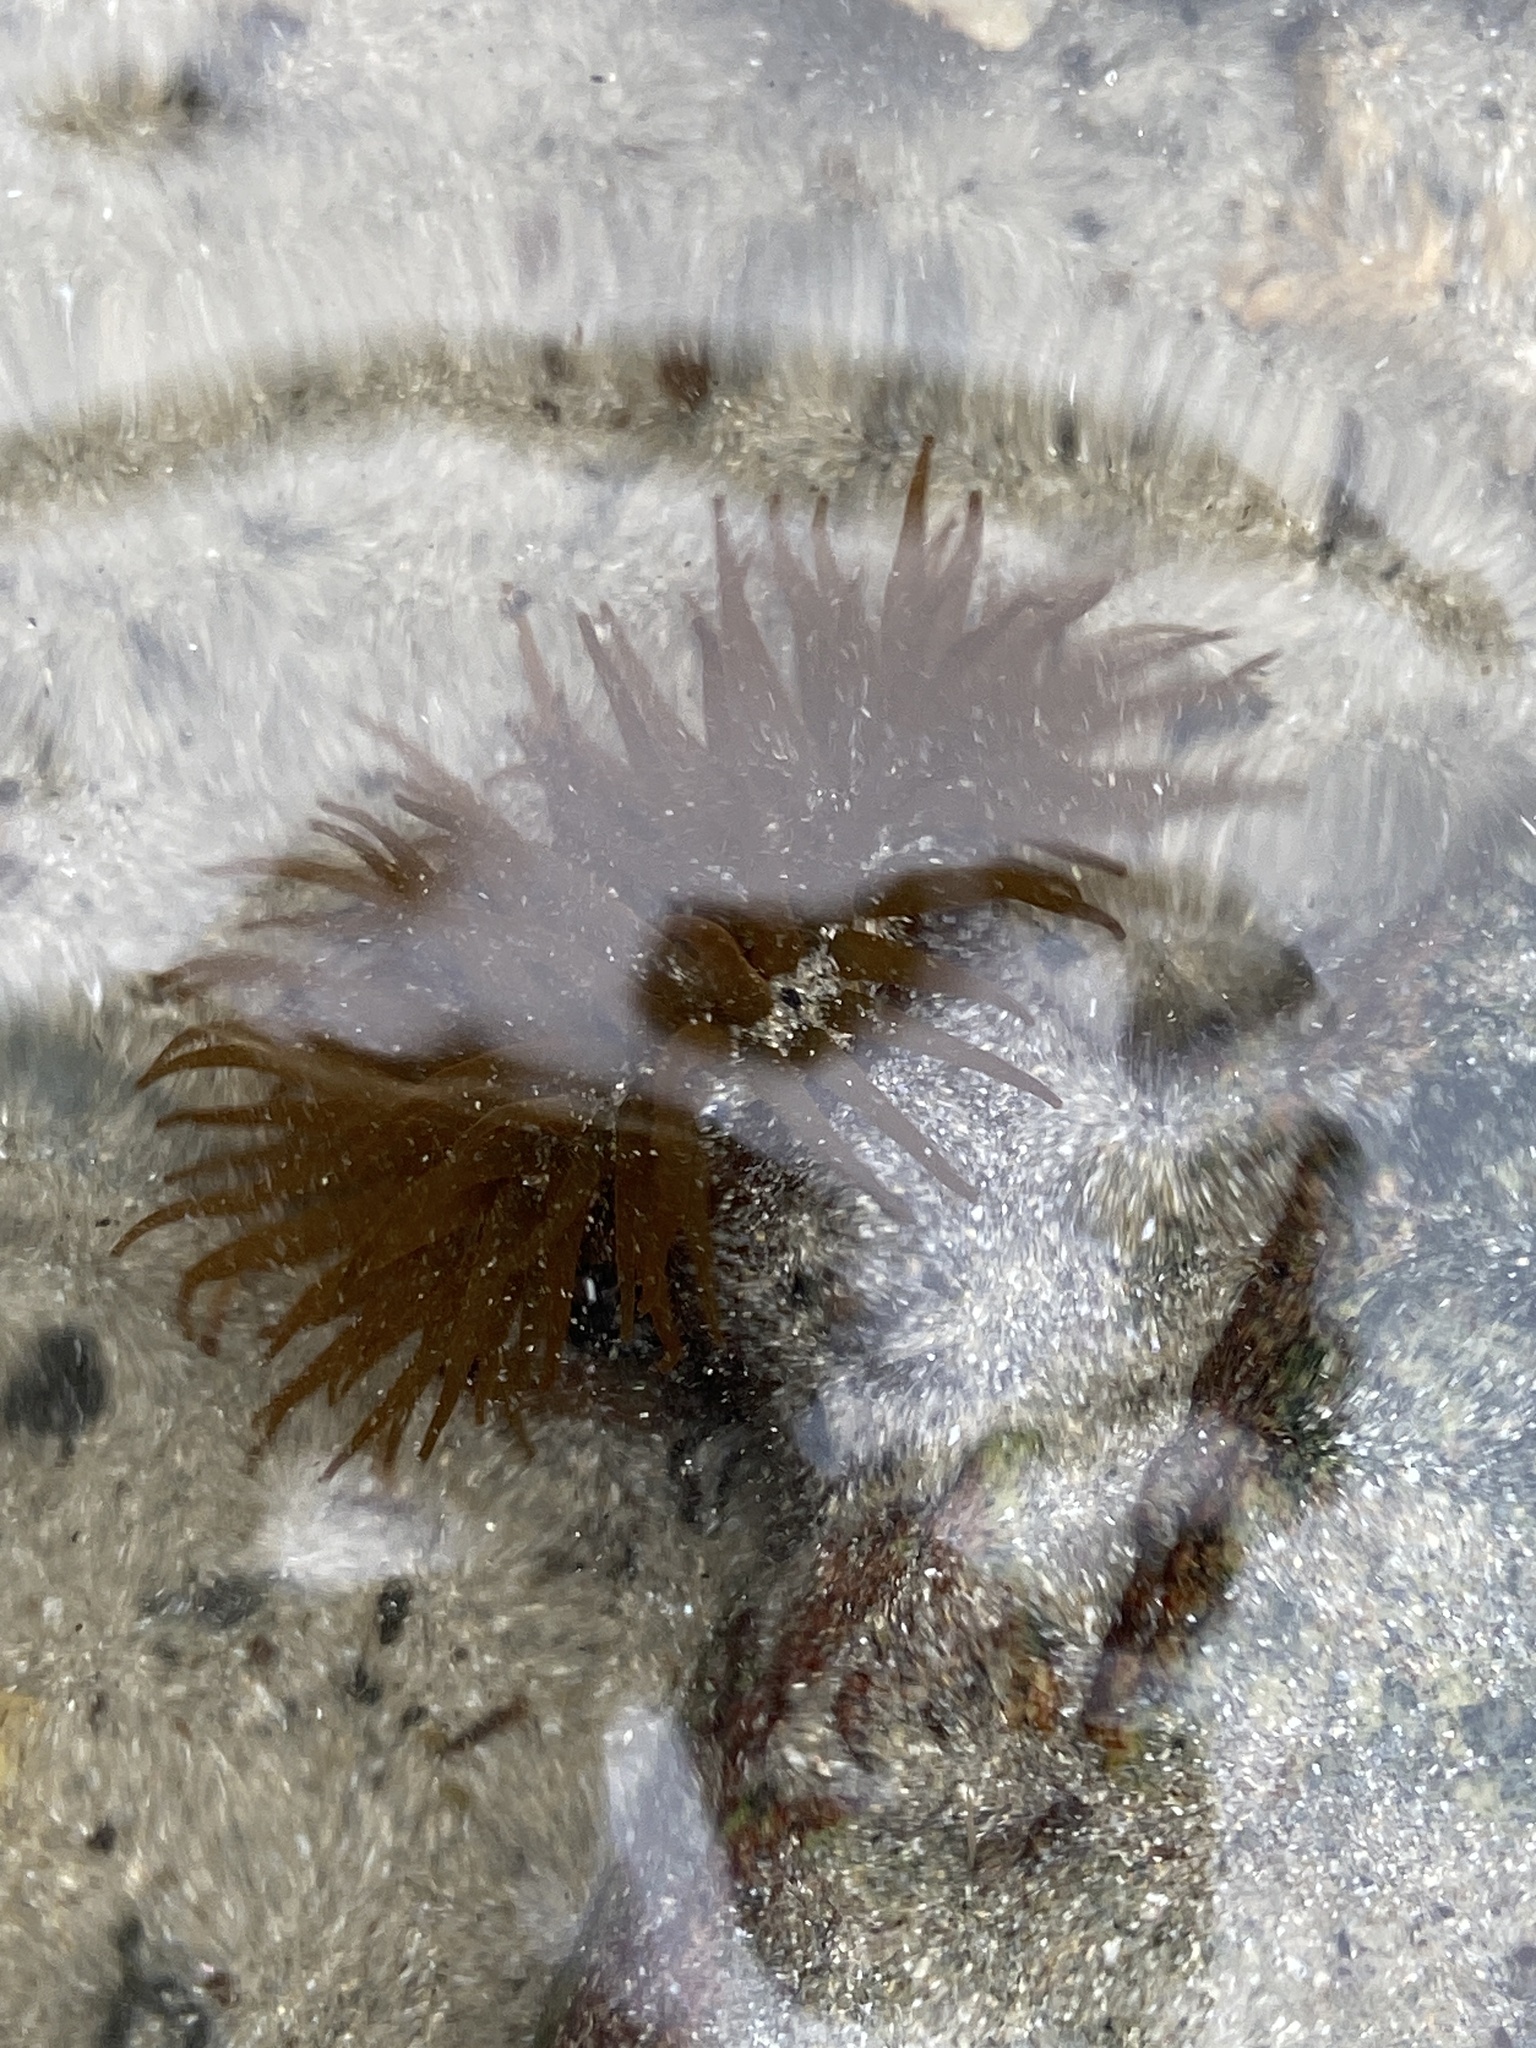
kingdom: Animalia
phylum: Cnidaria
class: Anthozoa
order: Actiniaria
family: Actiniidae
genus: Actinia
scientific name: Actinia equina
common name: Beadlet anemone
